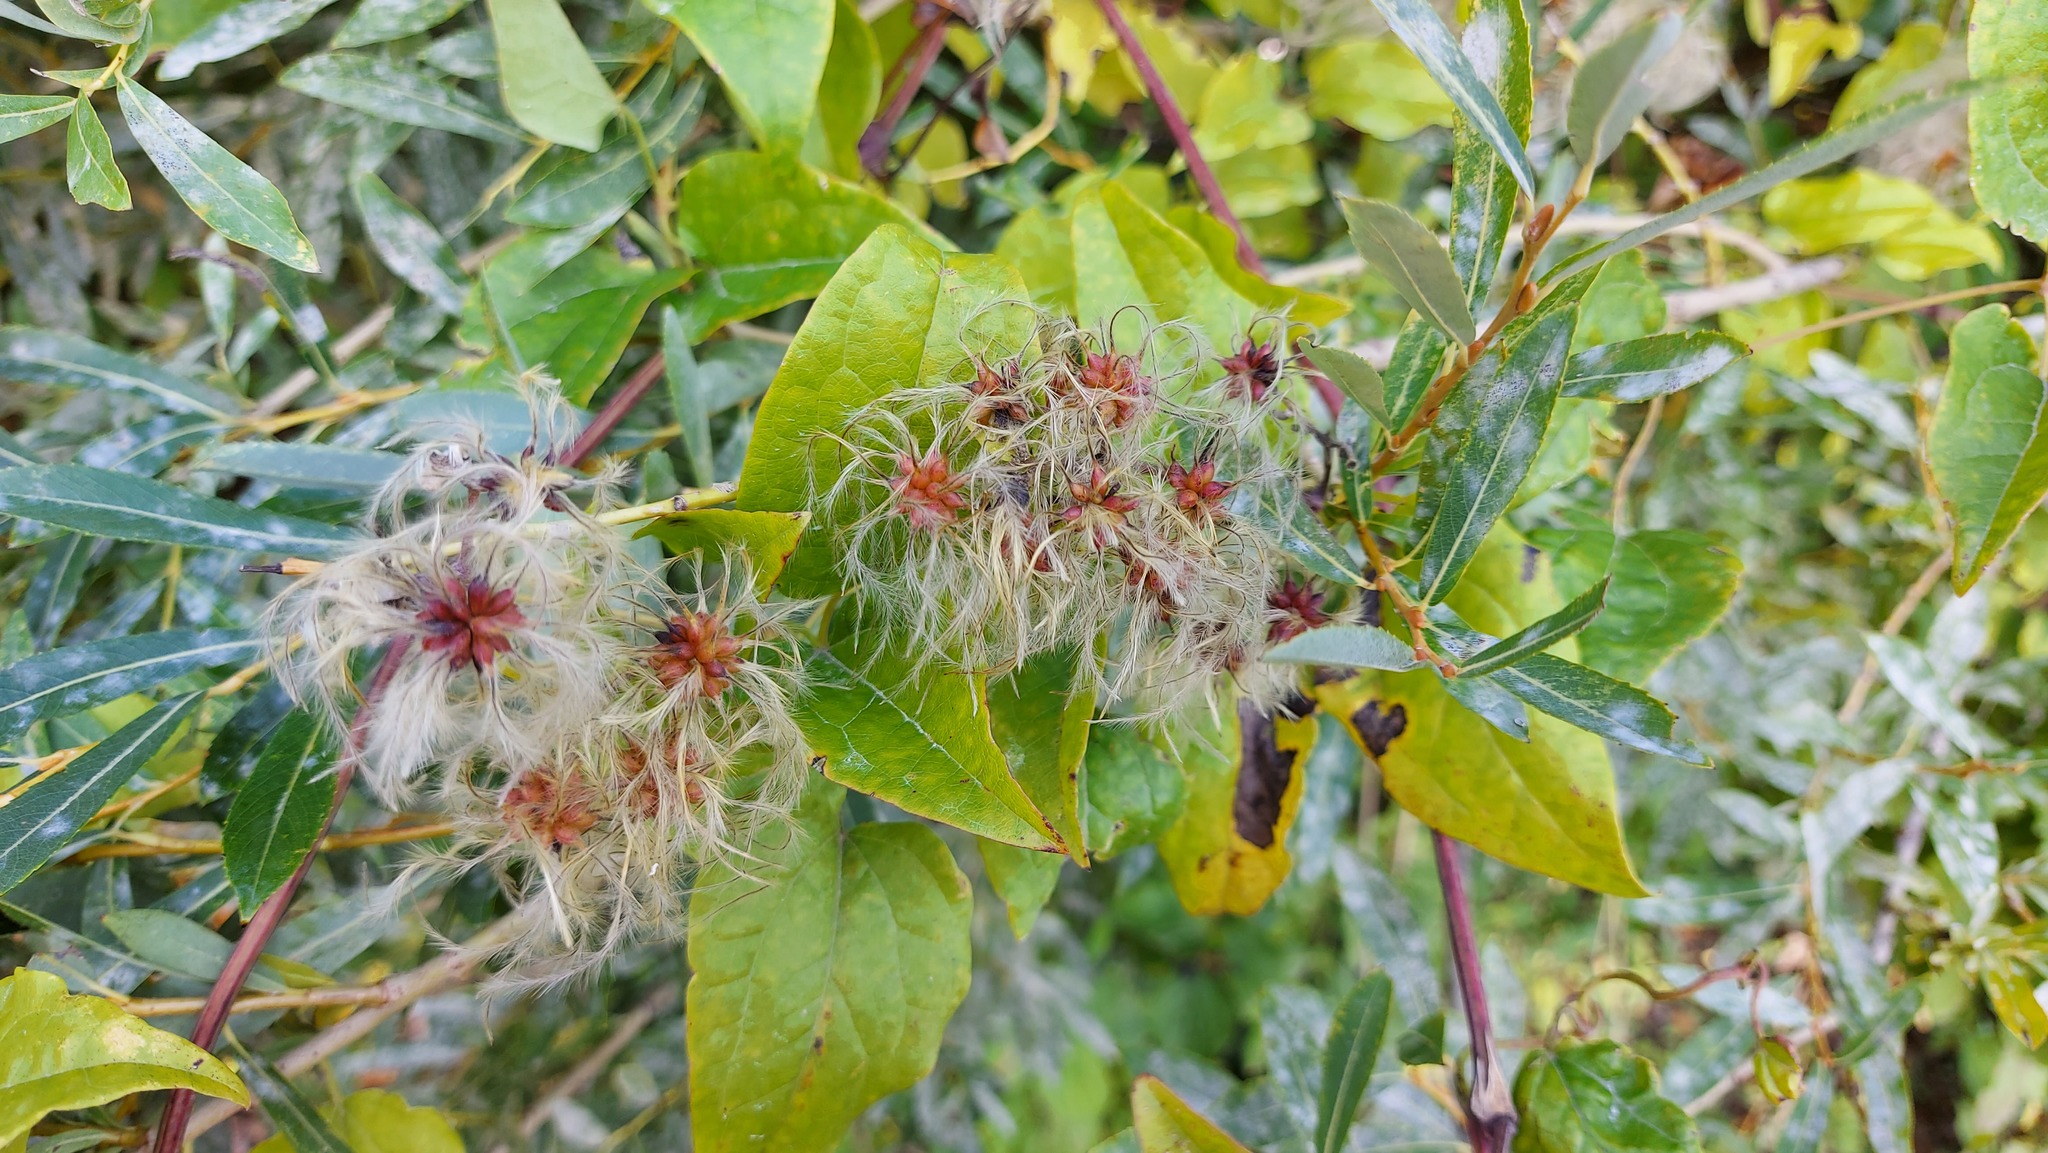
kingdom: Plantae
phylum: Tracheophyta
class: Magnoliopsida
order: Ranunculales
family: Ranunculaceae
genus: Clematis
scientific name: Clematis vitalba
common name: Evergreen clematis
